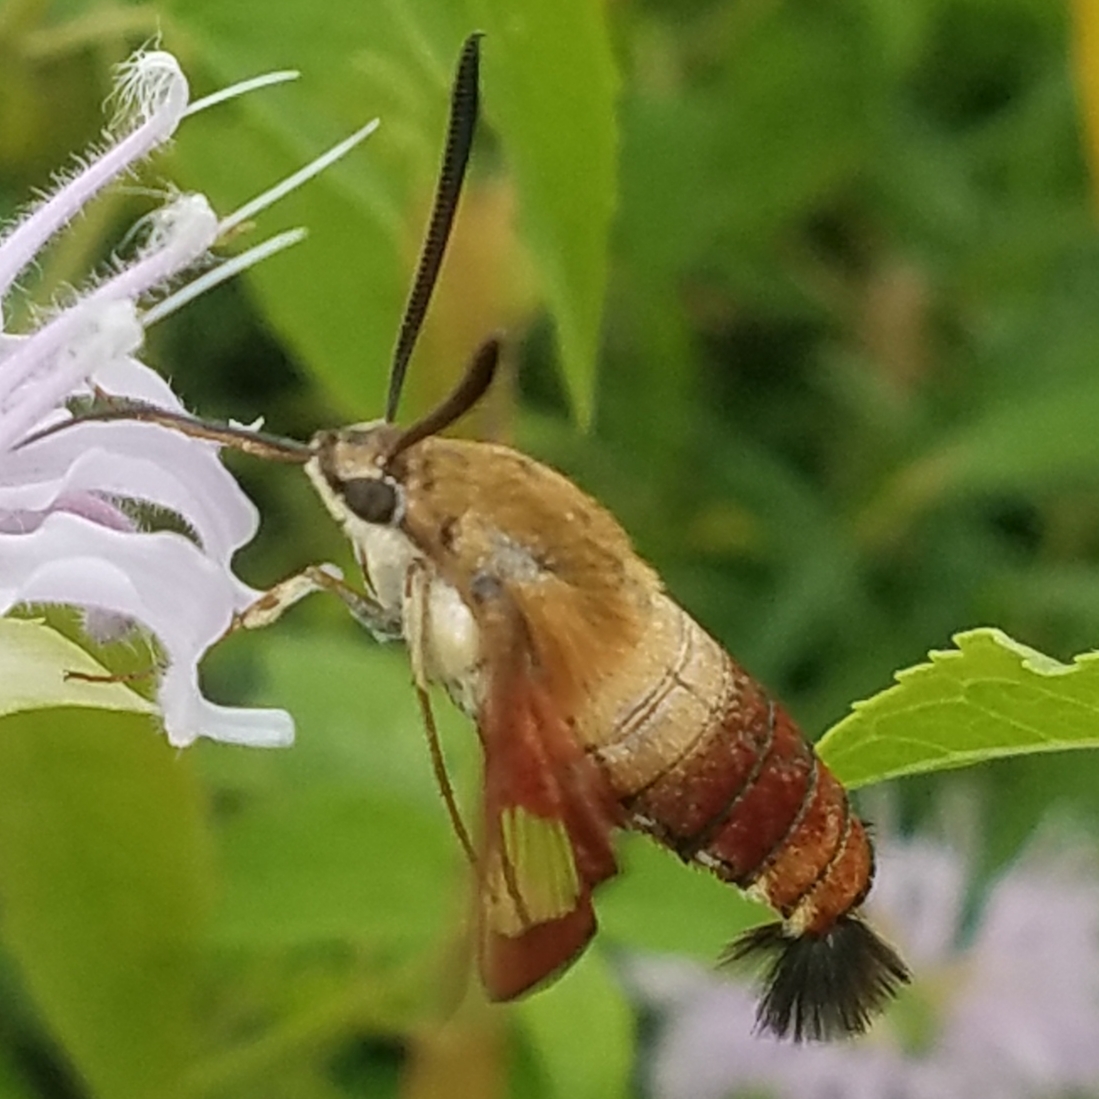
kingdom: Animalia
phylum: Arthropoda
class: Insecta
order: Lepidoptera
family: Sphingidae
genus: Hemaris
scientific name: Hemaris thysbe
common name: Common clear-wing
